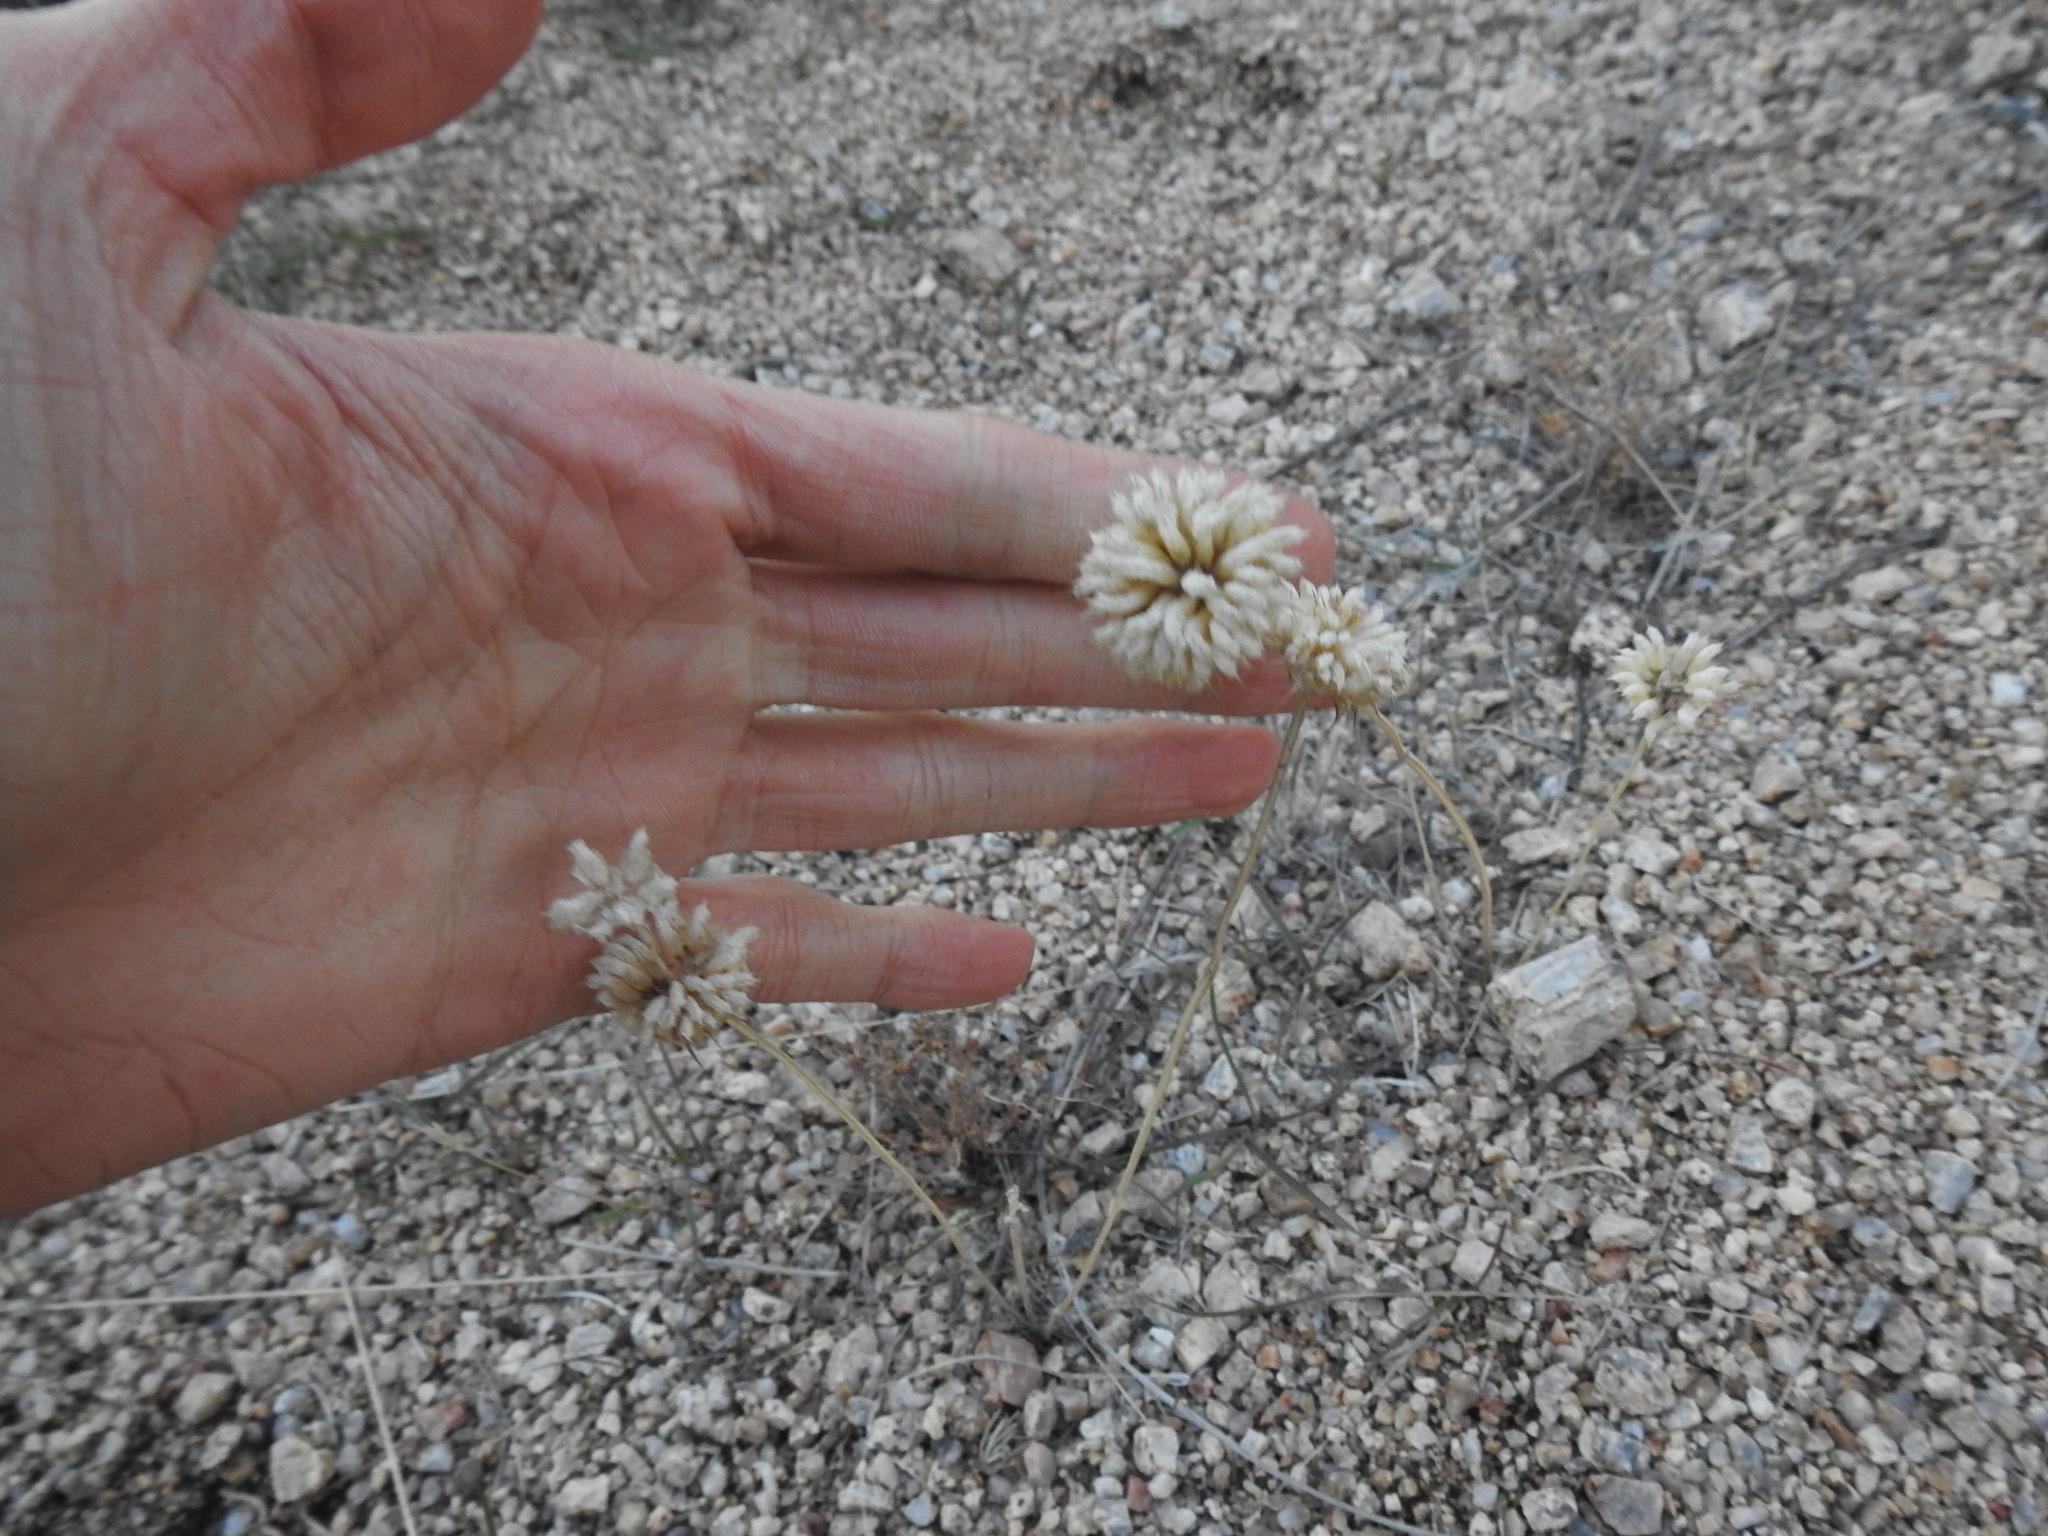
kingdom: Plantae
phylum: Tracheophyta
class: Magnoliopsida
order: Lamiales
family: Lamiaceae
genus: Salvia
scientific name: Salvia columbariae
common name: Chia
